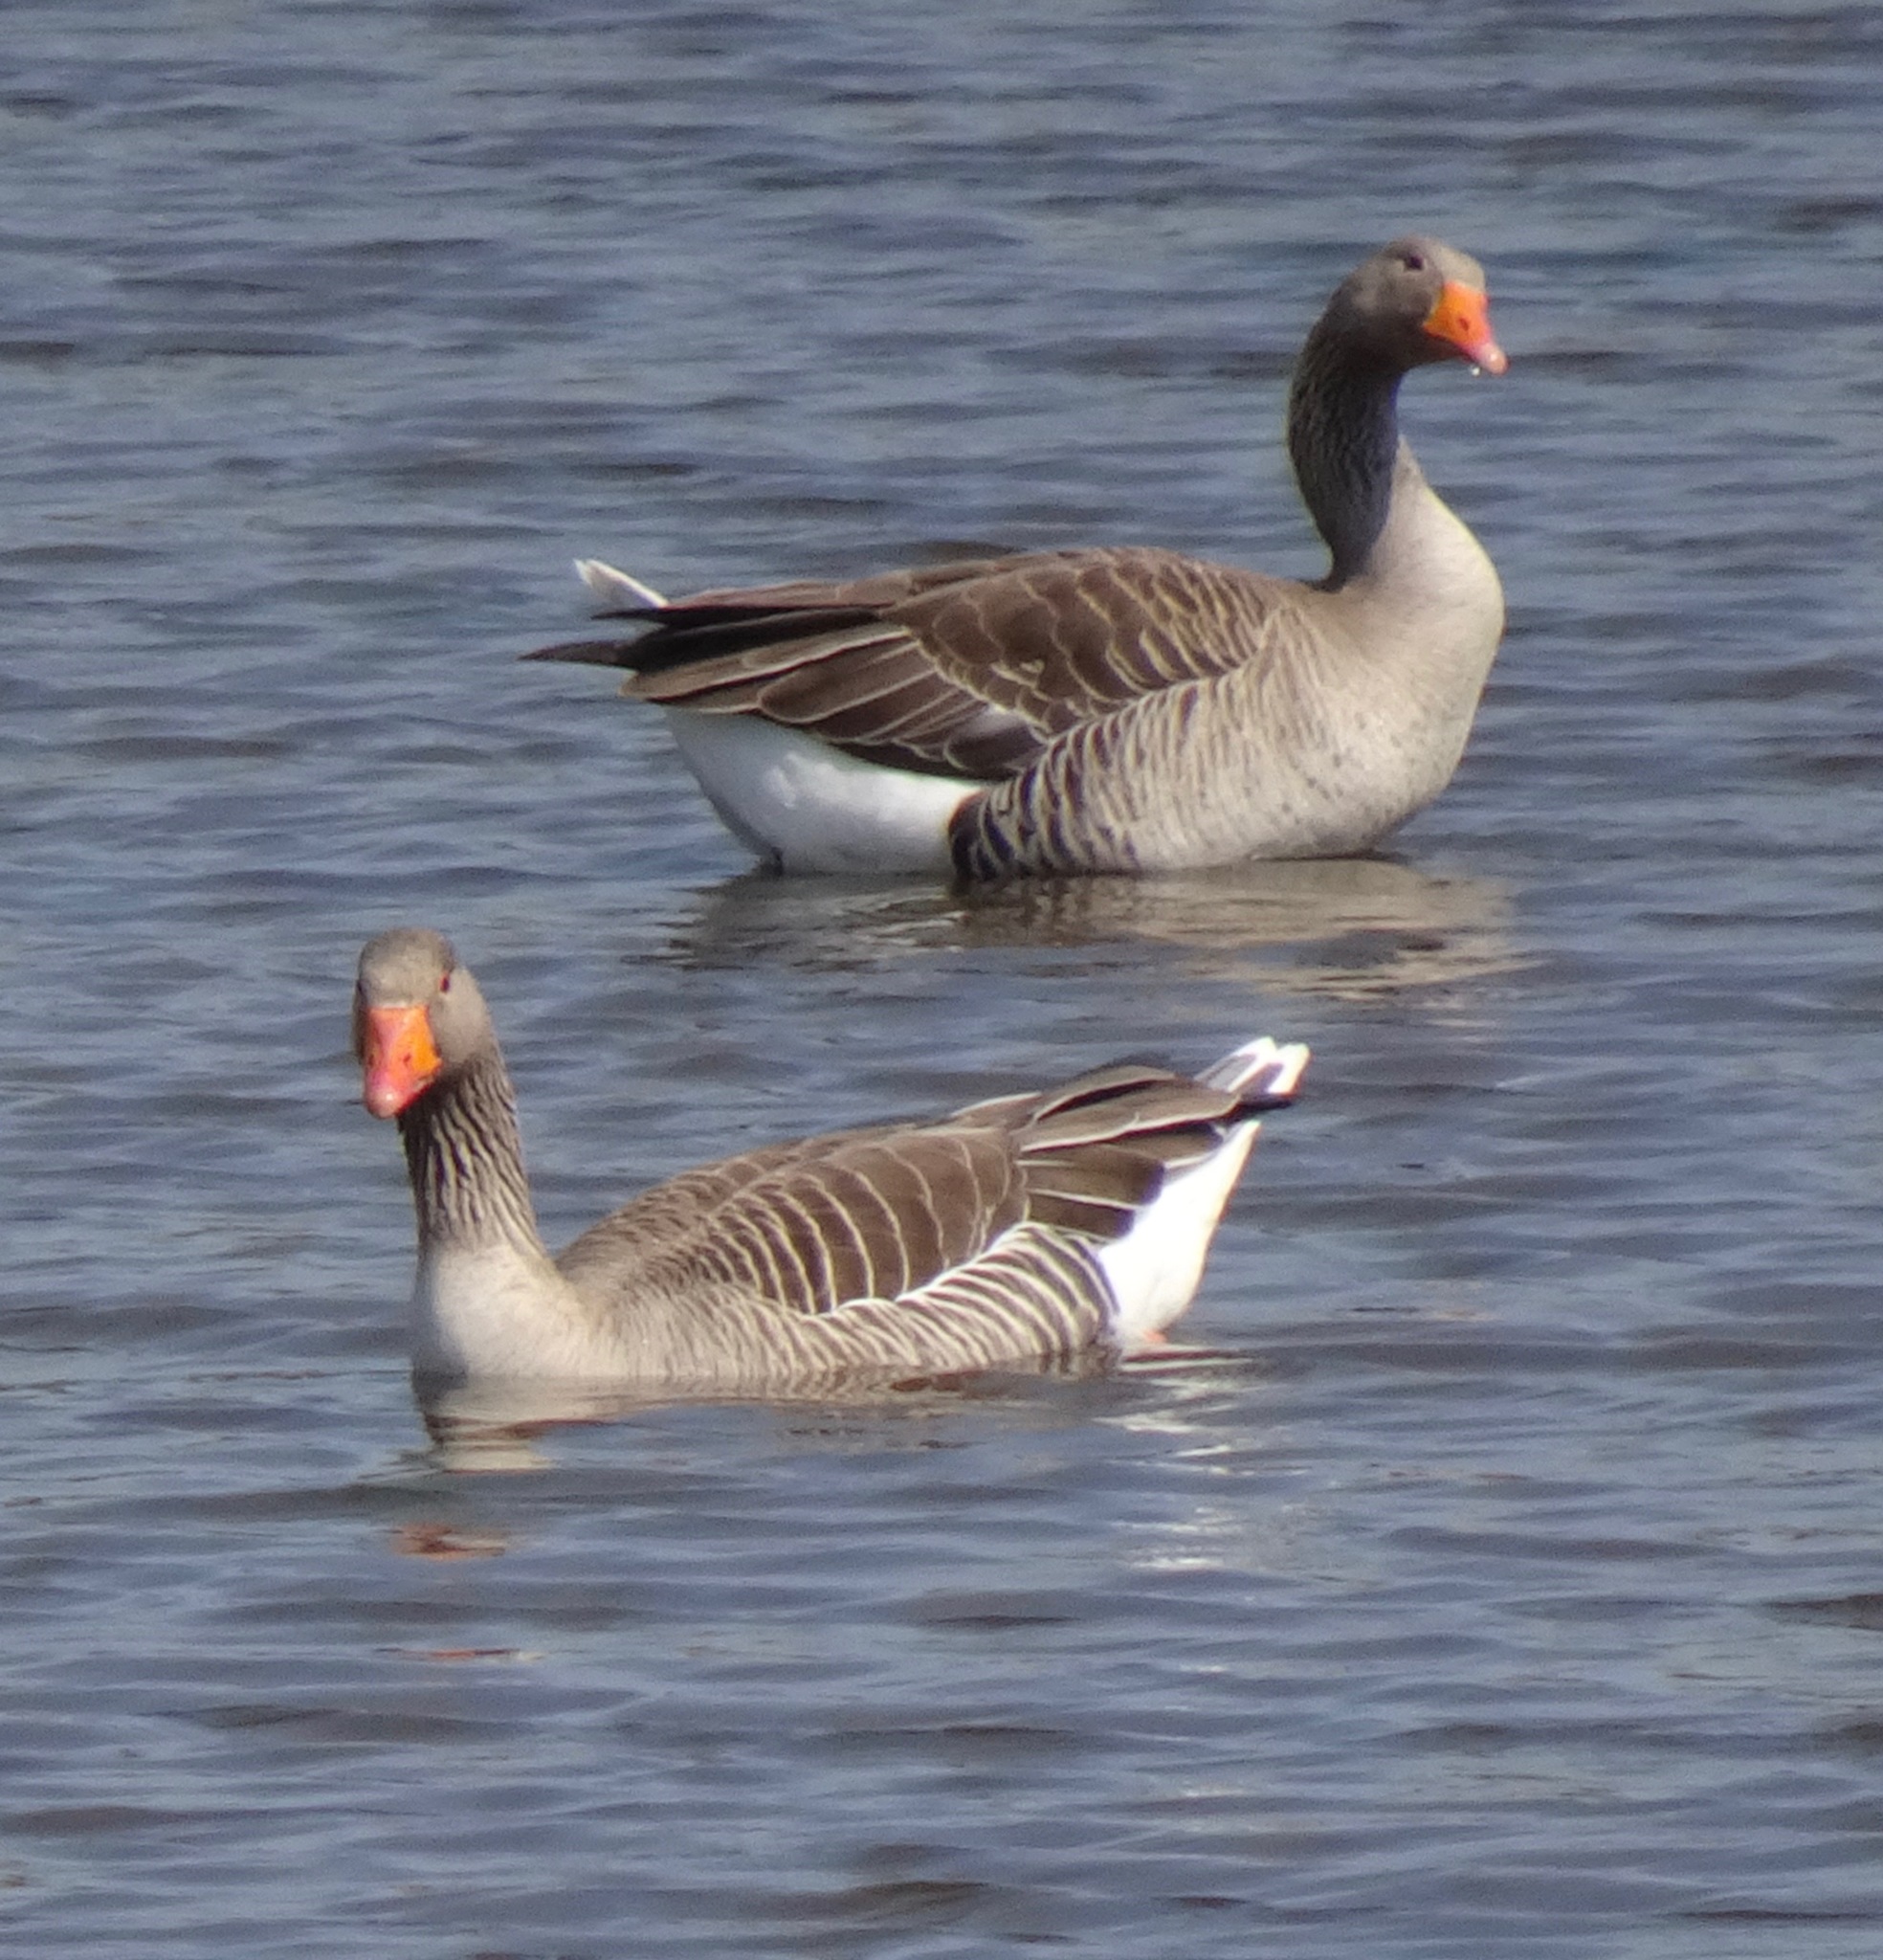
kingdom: Animalia
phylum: Chordata
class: Aves
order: Anseriformes
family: Anatidae
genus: Anser
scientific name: Anser anser
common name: Greylag goose
